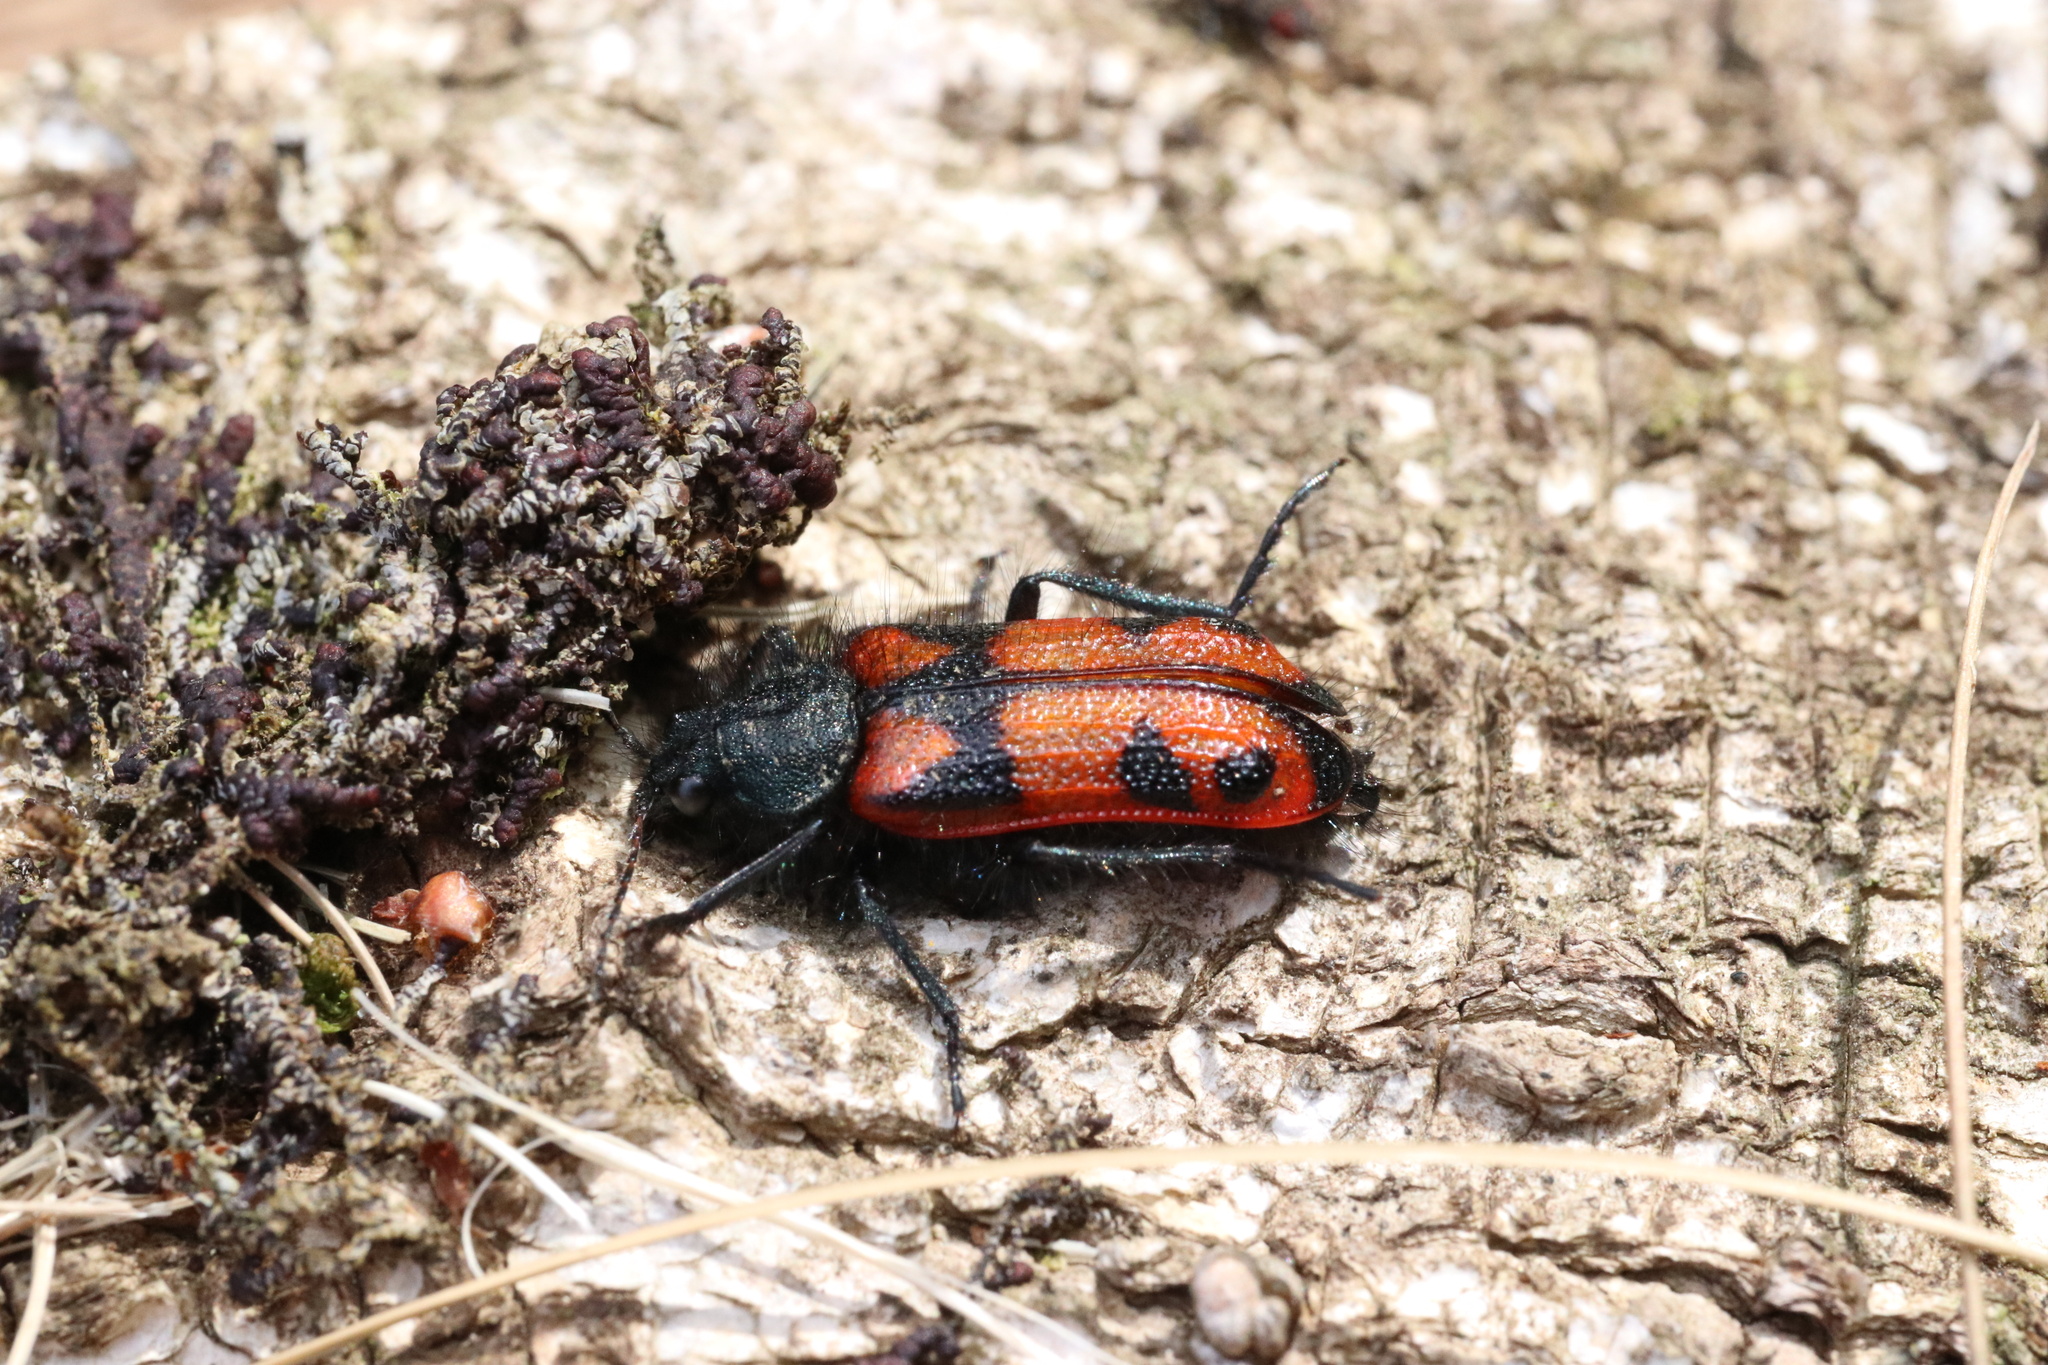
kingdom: Animalia
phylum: Arthropoda
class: Insecta
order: Coleoptera
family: Melyridae
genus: Astylus
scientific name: Astylus
